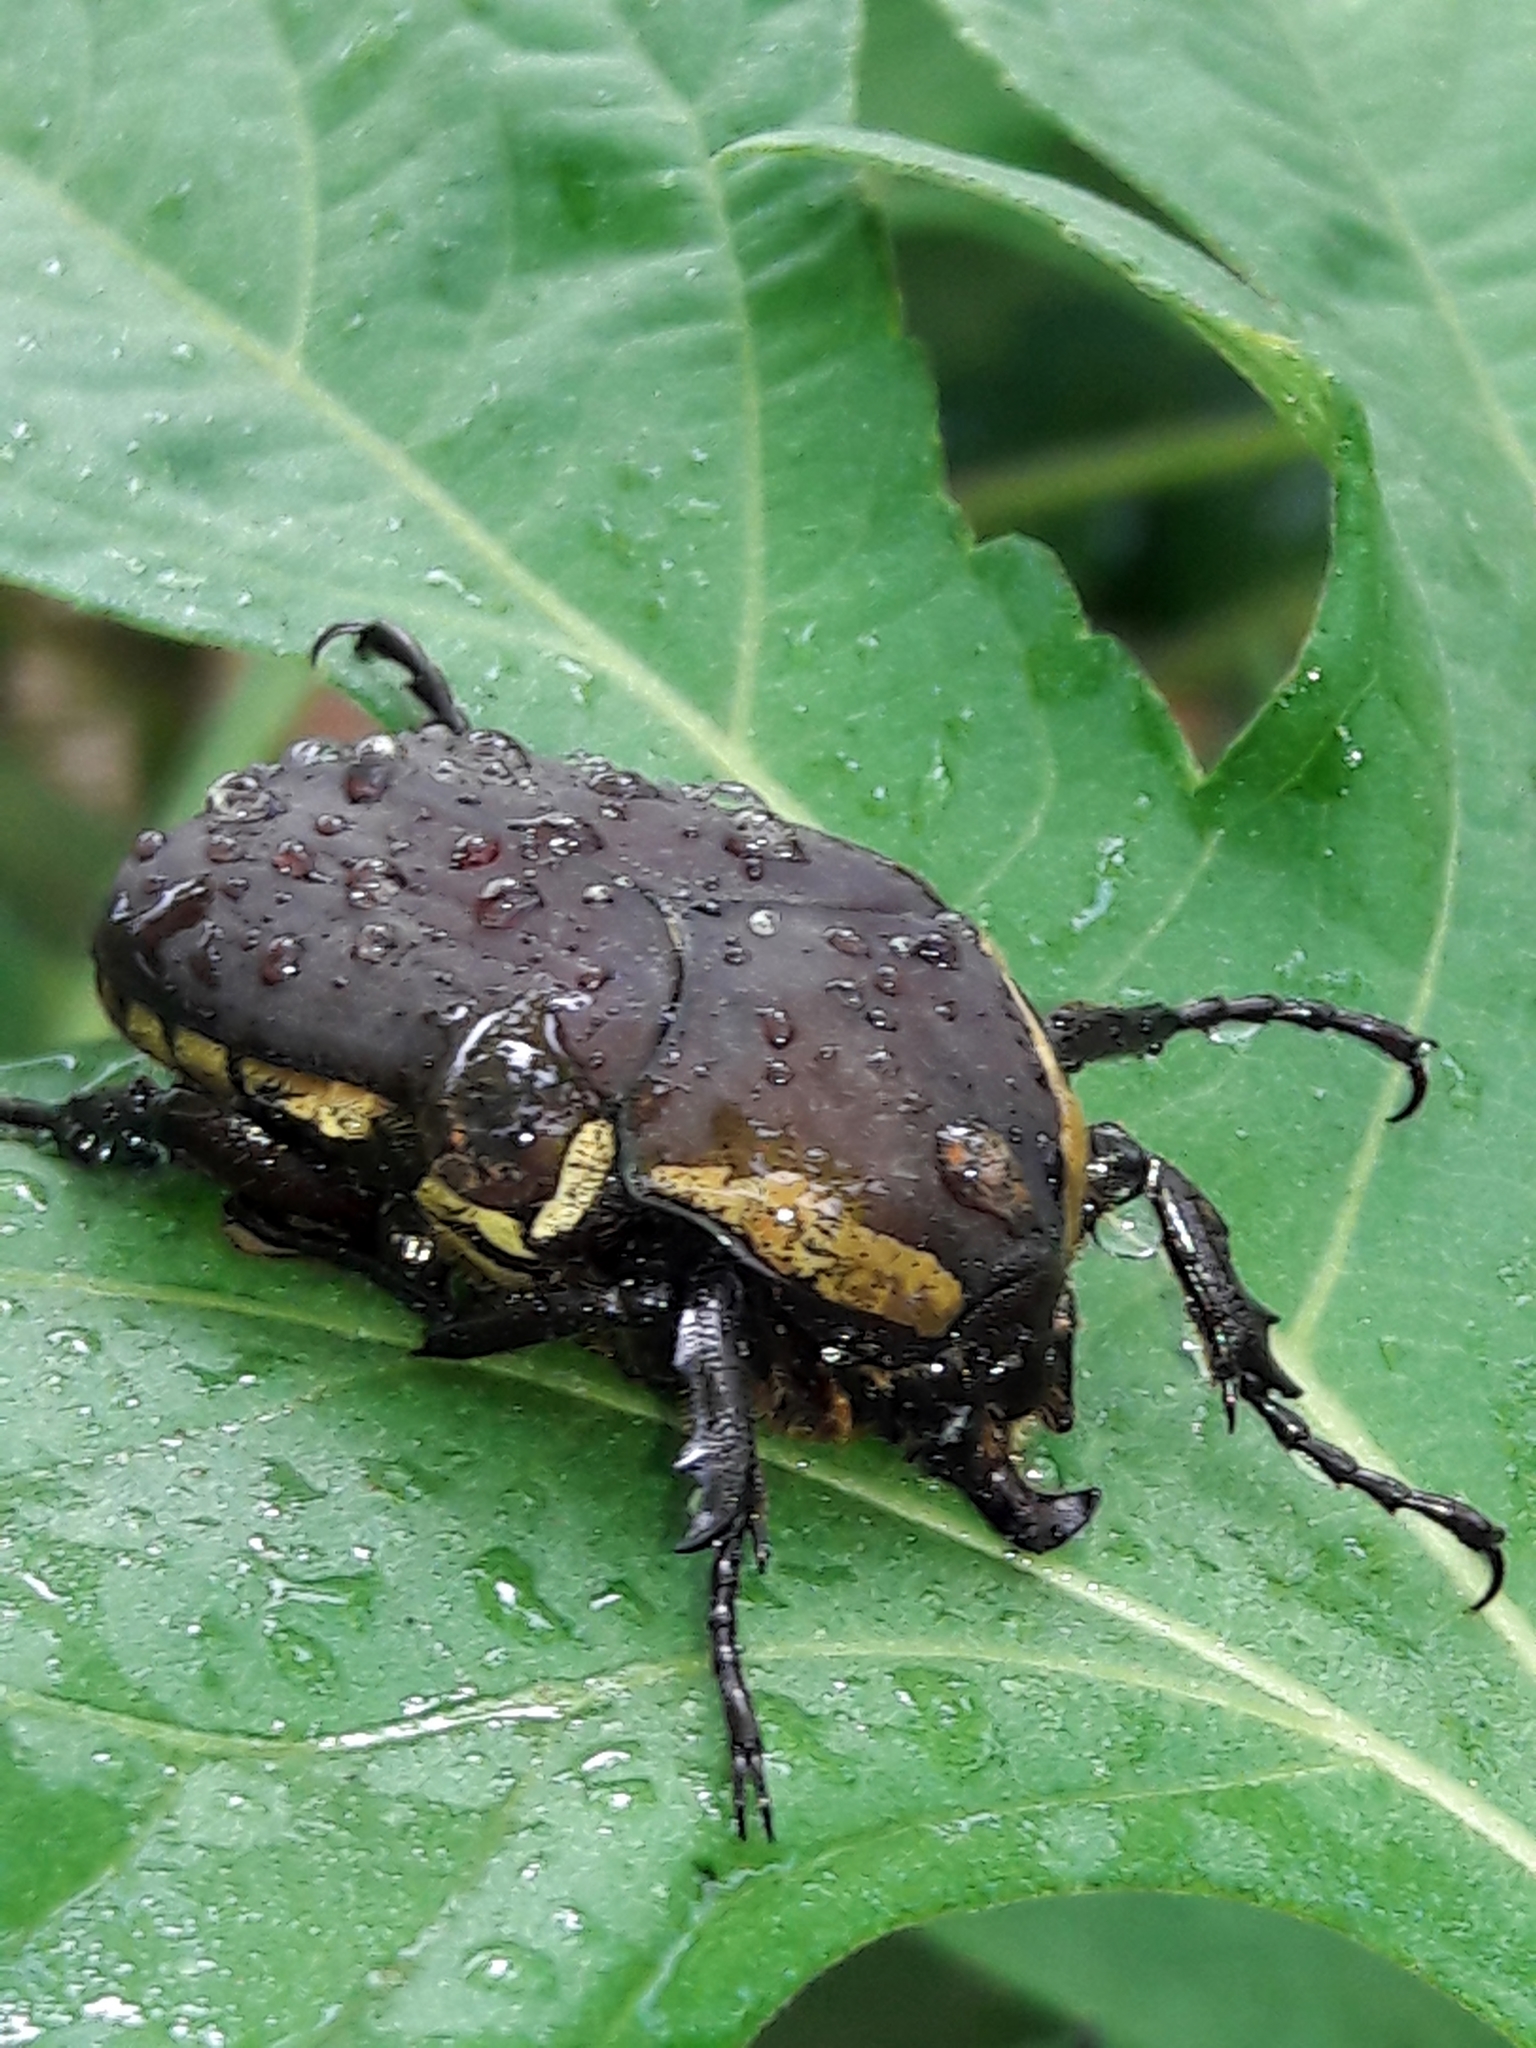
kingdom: Animalia
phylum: Arthropoda
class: Insecta
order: Coleoptera
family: Scarabaeidae
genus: Allorrhina
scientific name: Allorrhina menetriesi
